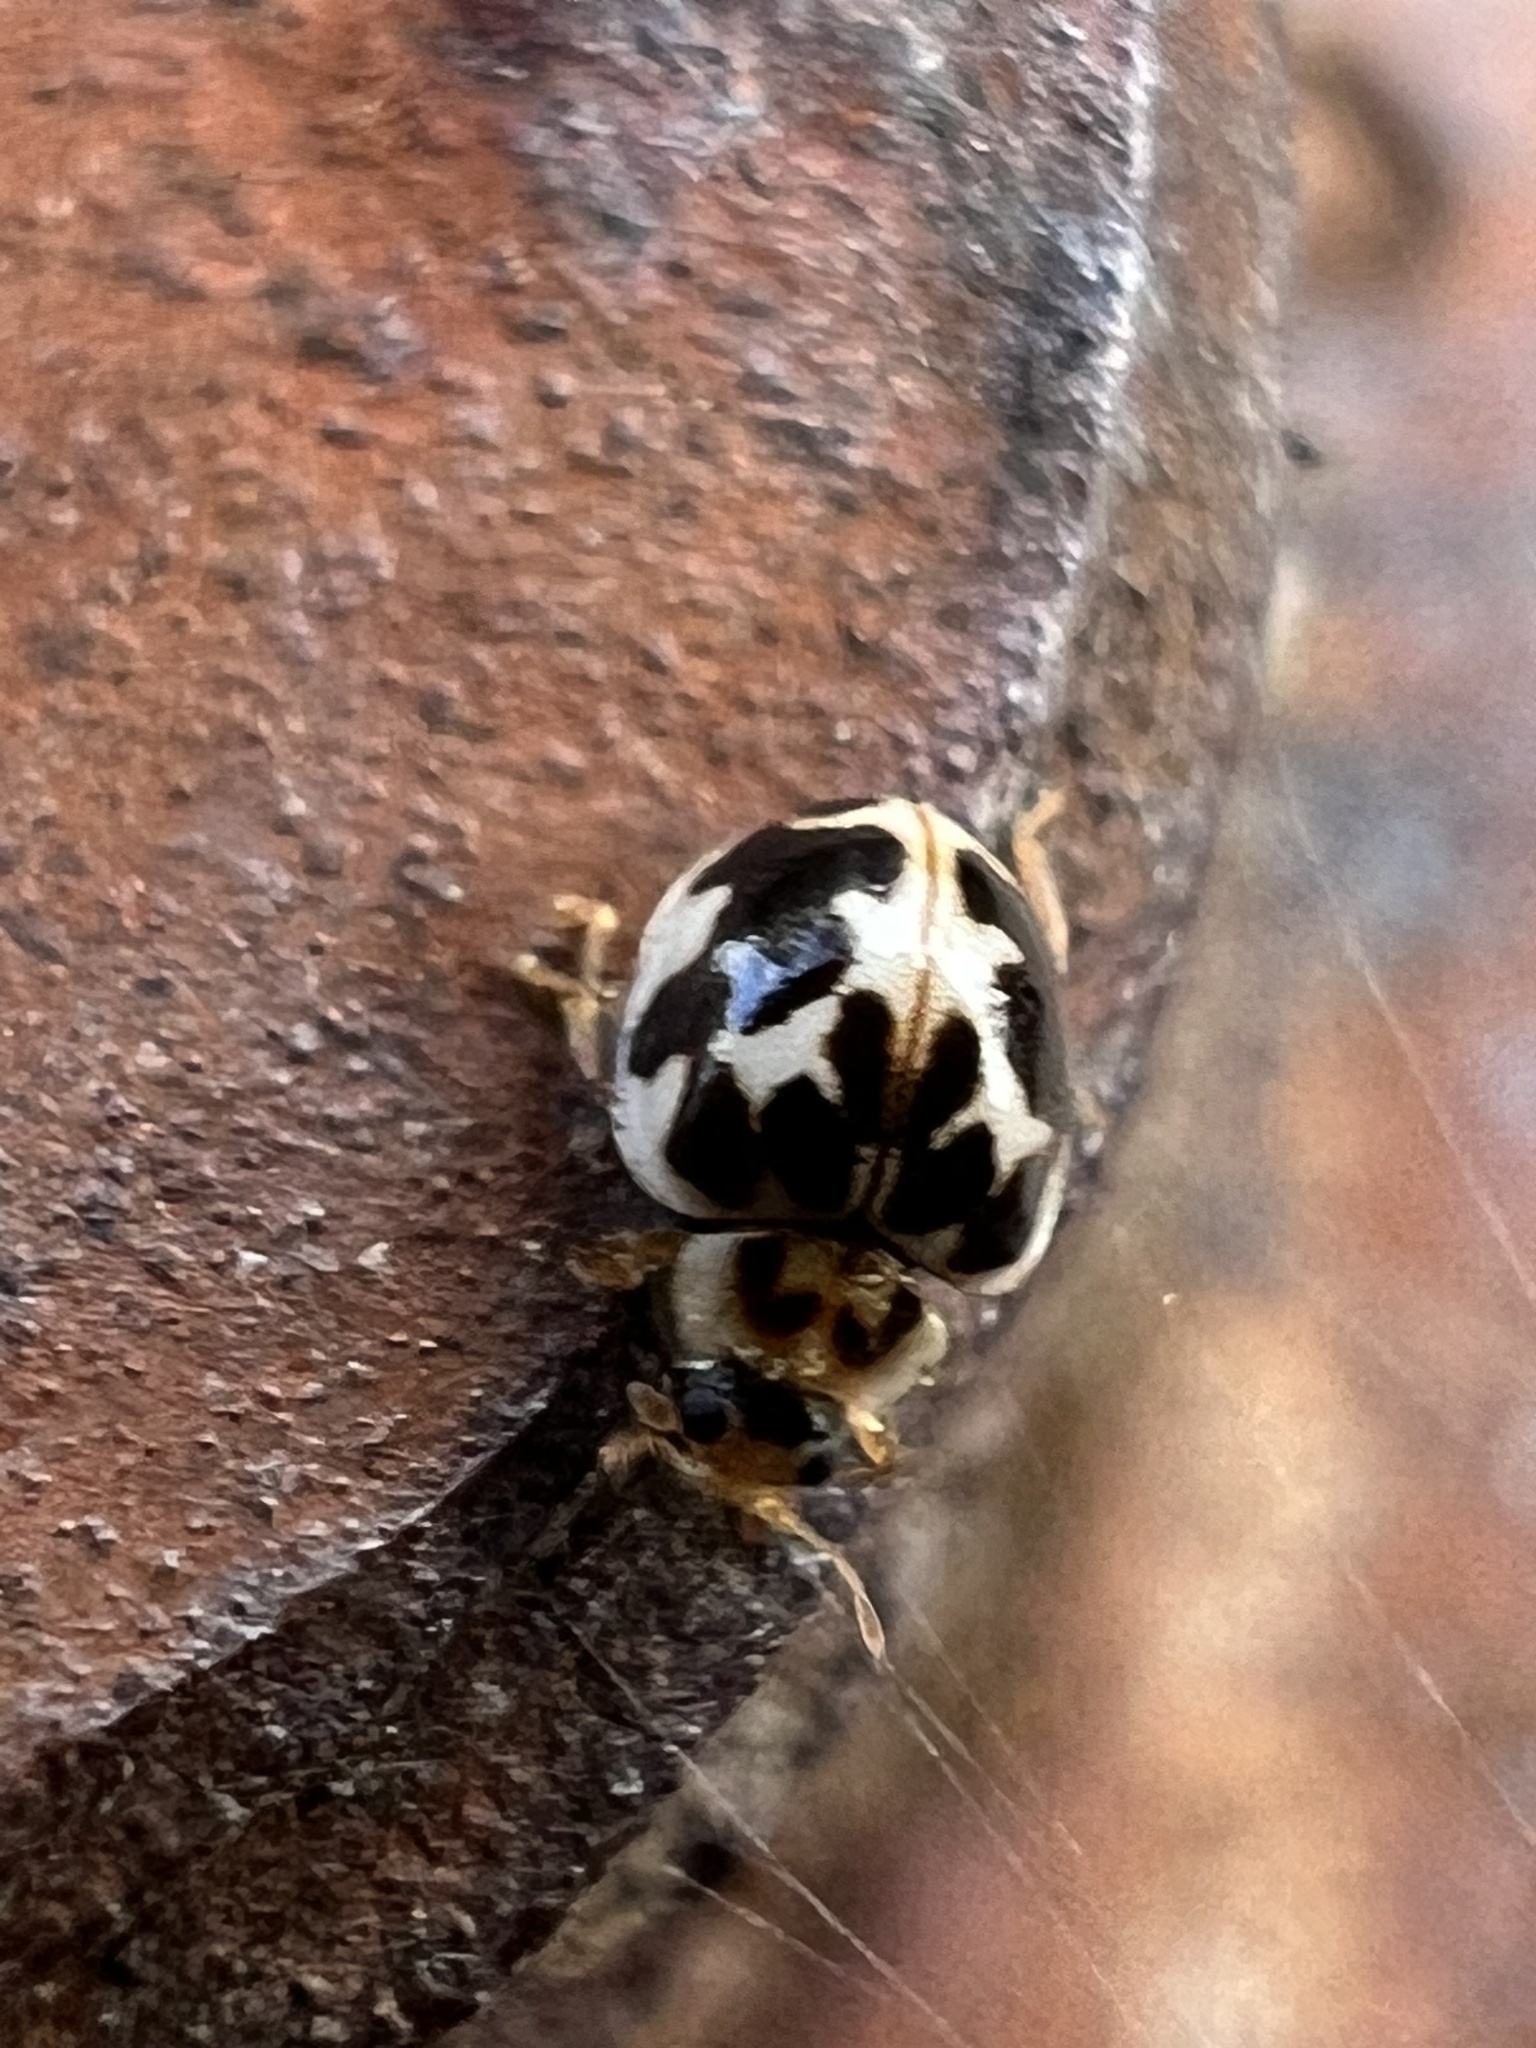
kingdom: Animalia
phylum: Arthropoda
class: Insecta
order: Coleoptera
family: Coccinellidae
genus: Psyllobora
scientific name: Psyllobora vigintimaculata
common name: Ladybird beetle
